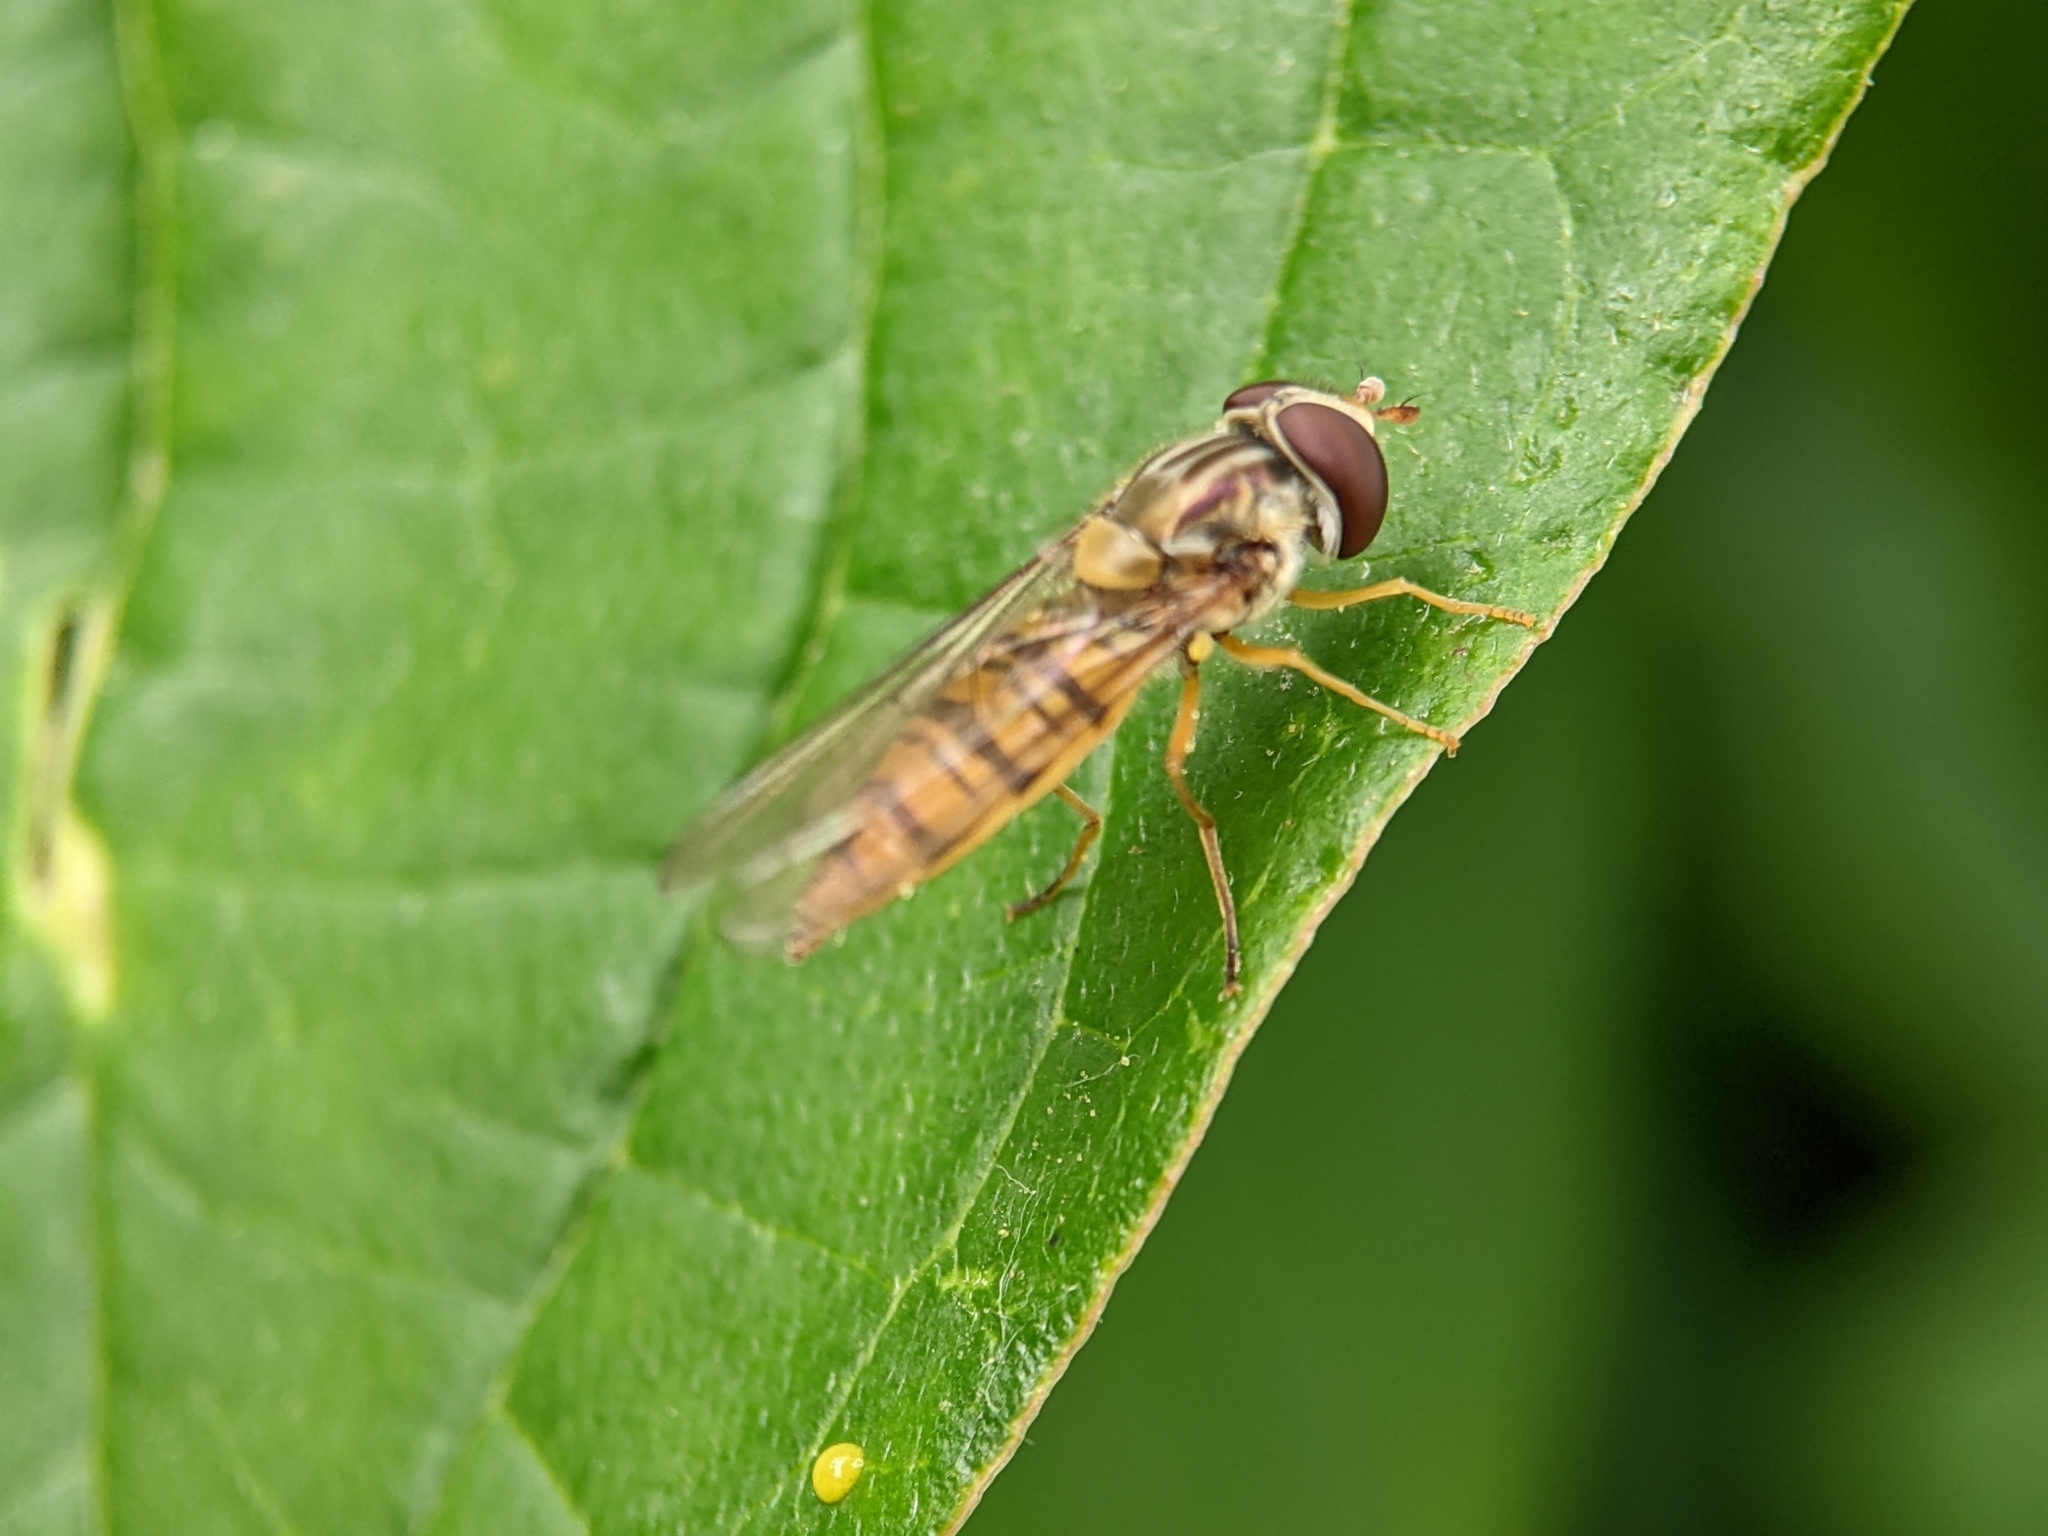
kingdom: Animalia
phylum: Arthropoda
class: Insecta
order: Diptera
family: Syrphidae
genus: Episyrphus
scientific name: Episyrphus balteatus
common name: Marmalade hoverfly
